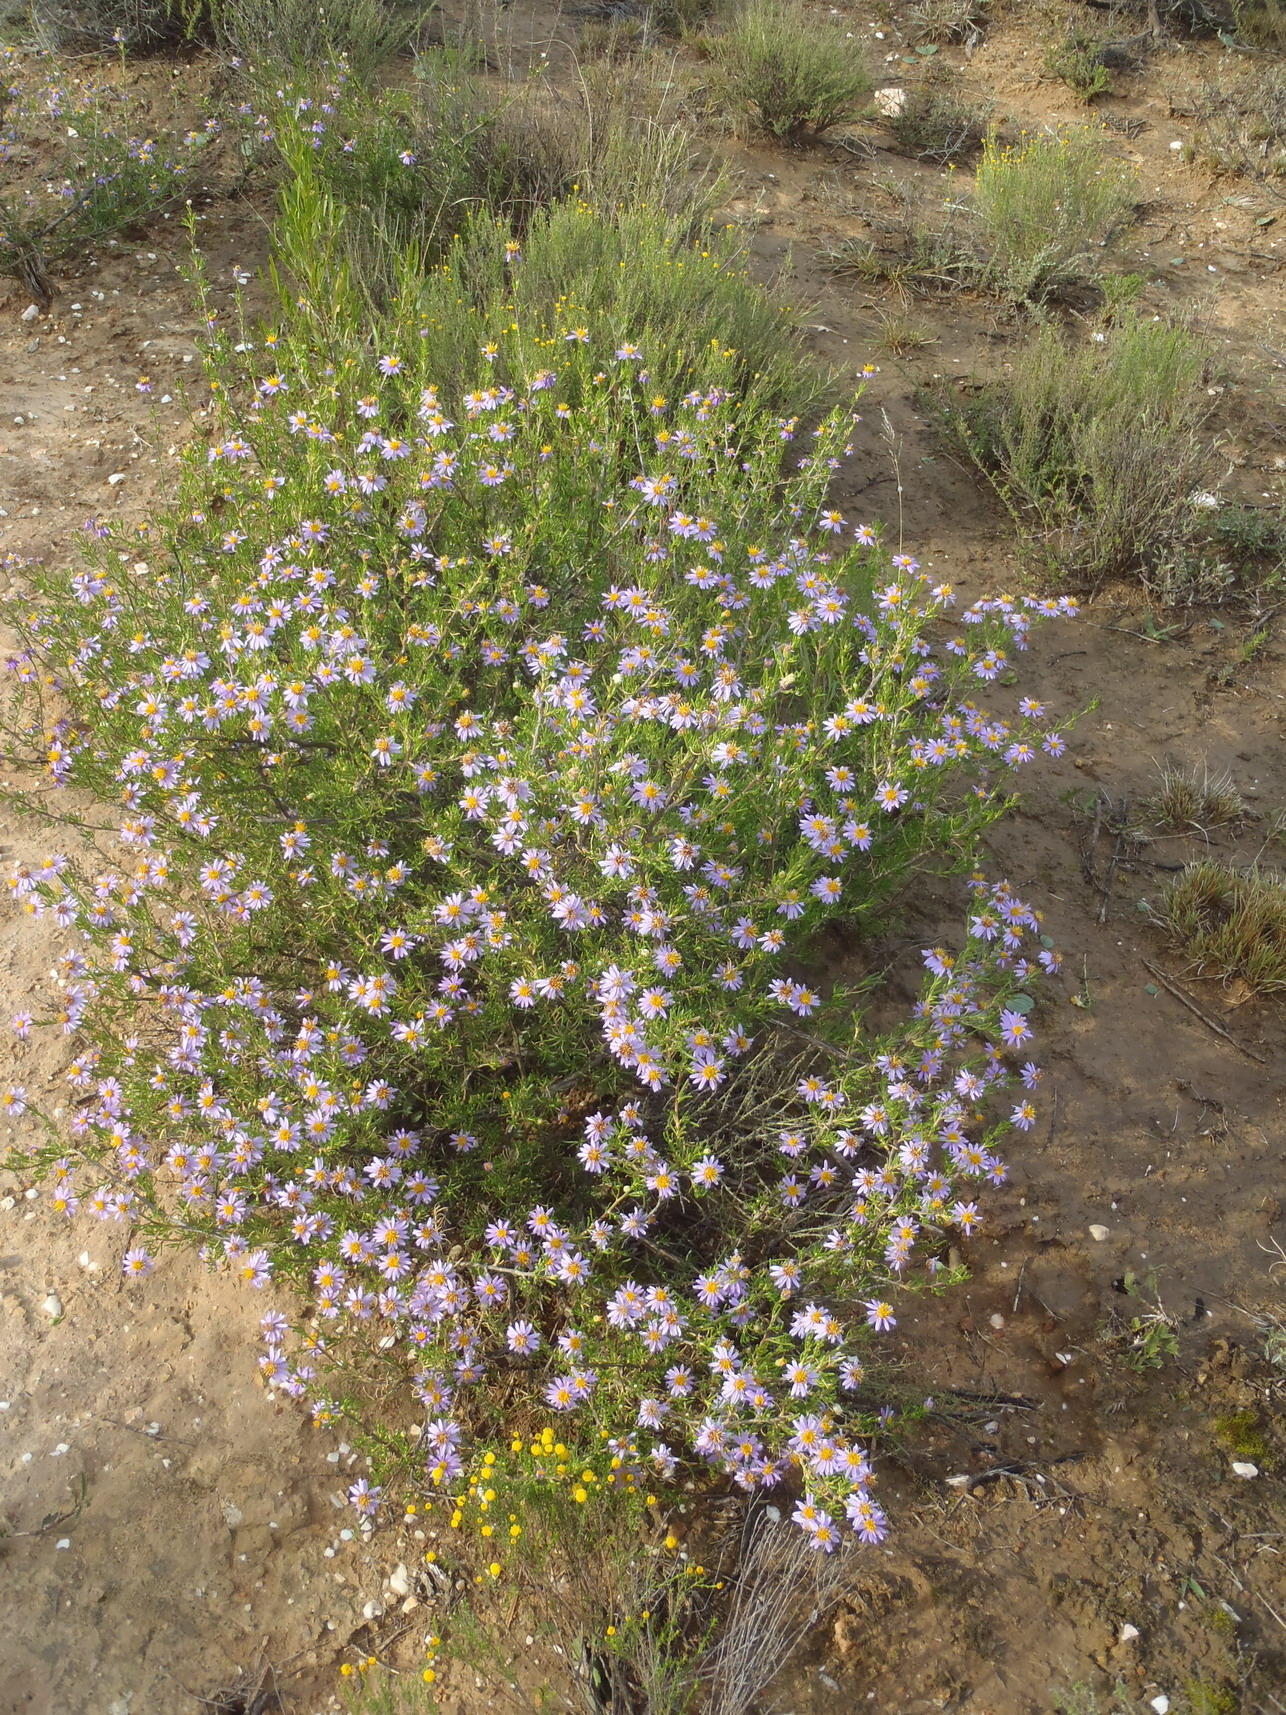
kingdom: Plantae
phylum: Tracheophyta
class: Magnoliopsida
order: Asterales
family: Asteraceae
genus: Felicia
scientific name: Felicia filifolia
